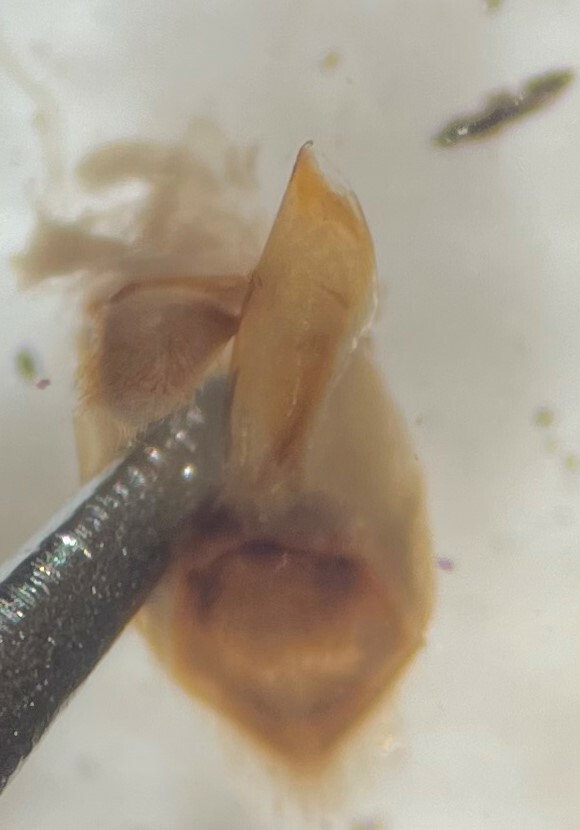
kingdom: Animalia
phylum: Arthropoda
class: Insecta
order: Hemiptera
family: Naucoridae
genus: Ambrysus
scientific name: Ambrysus lunatus
